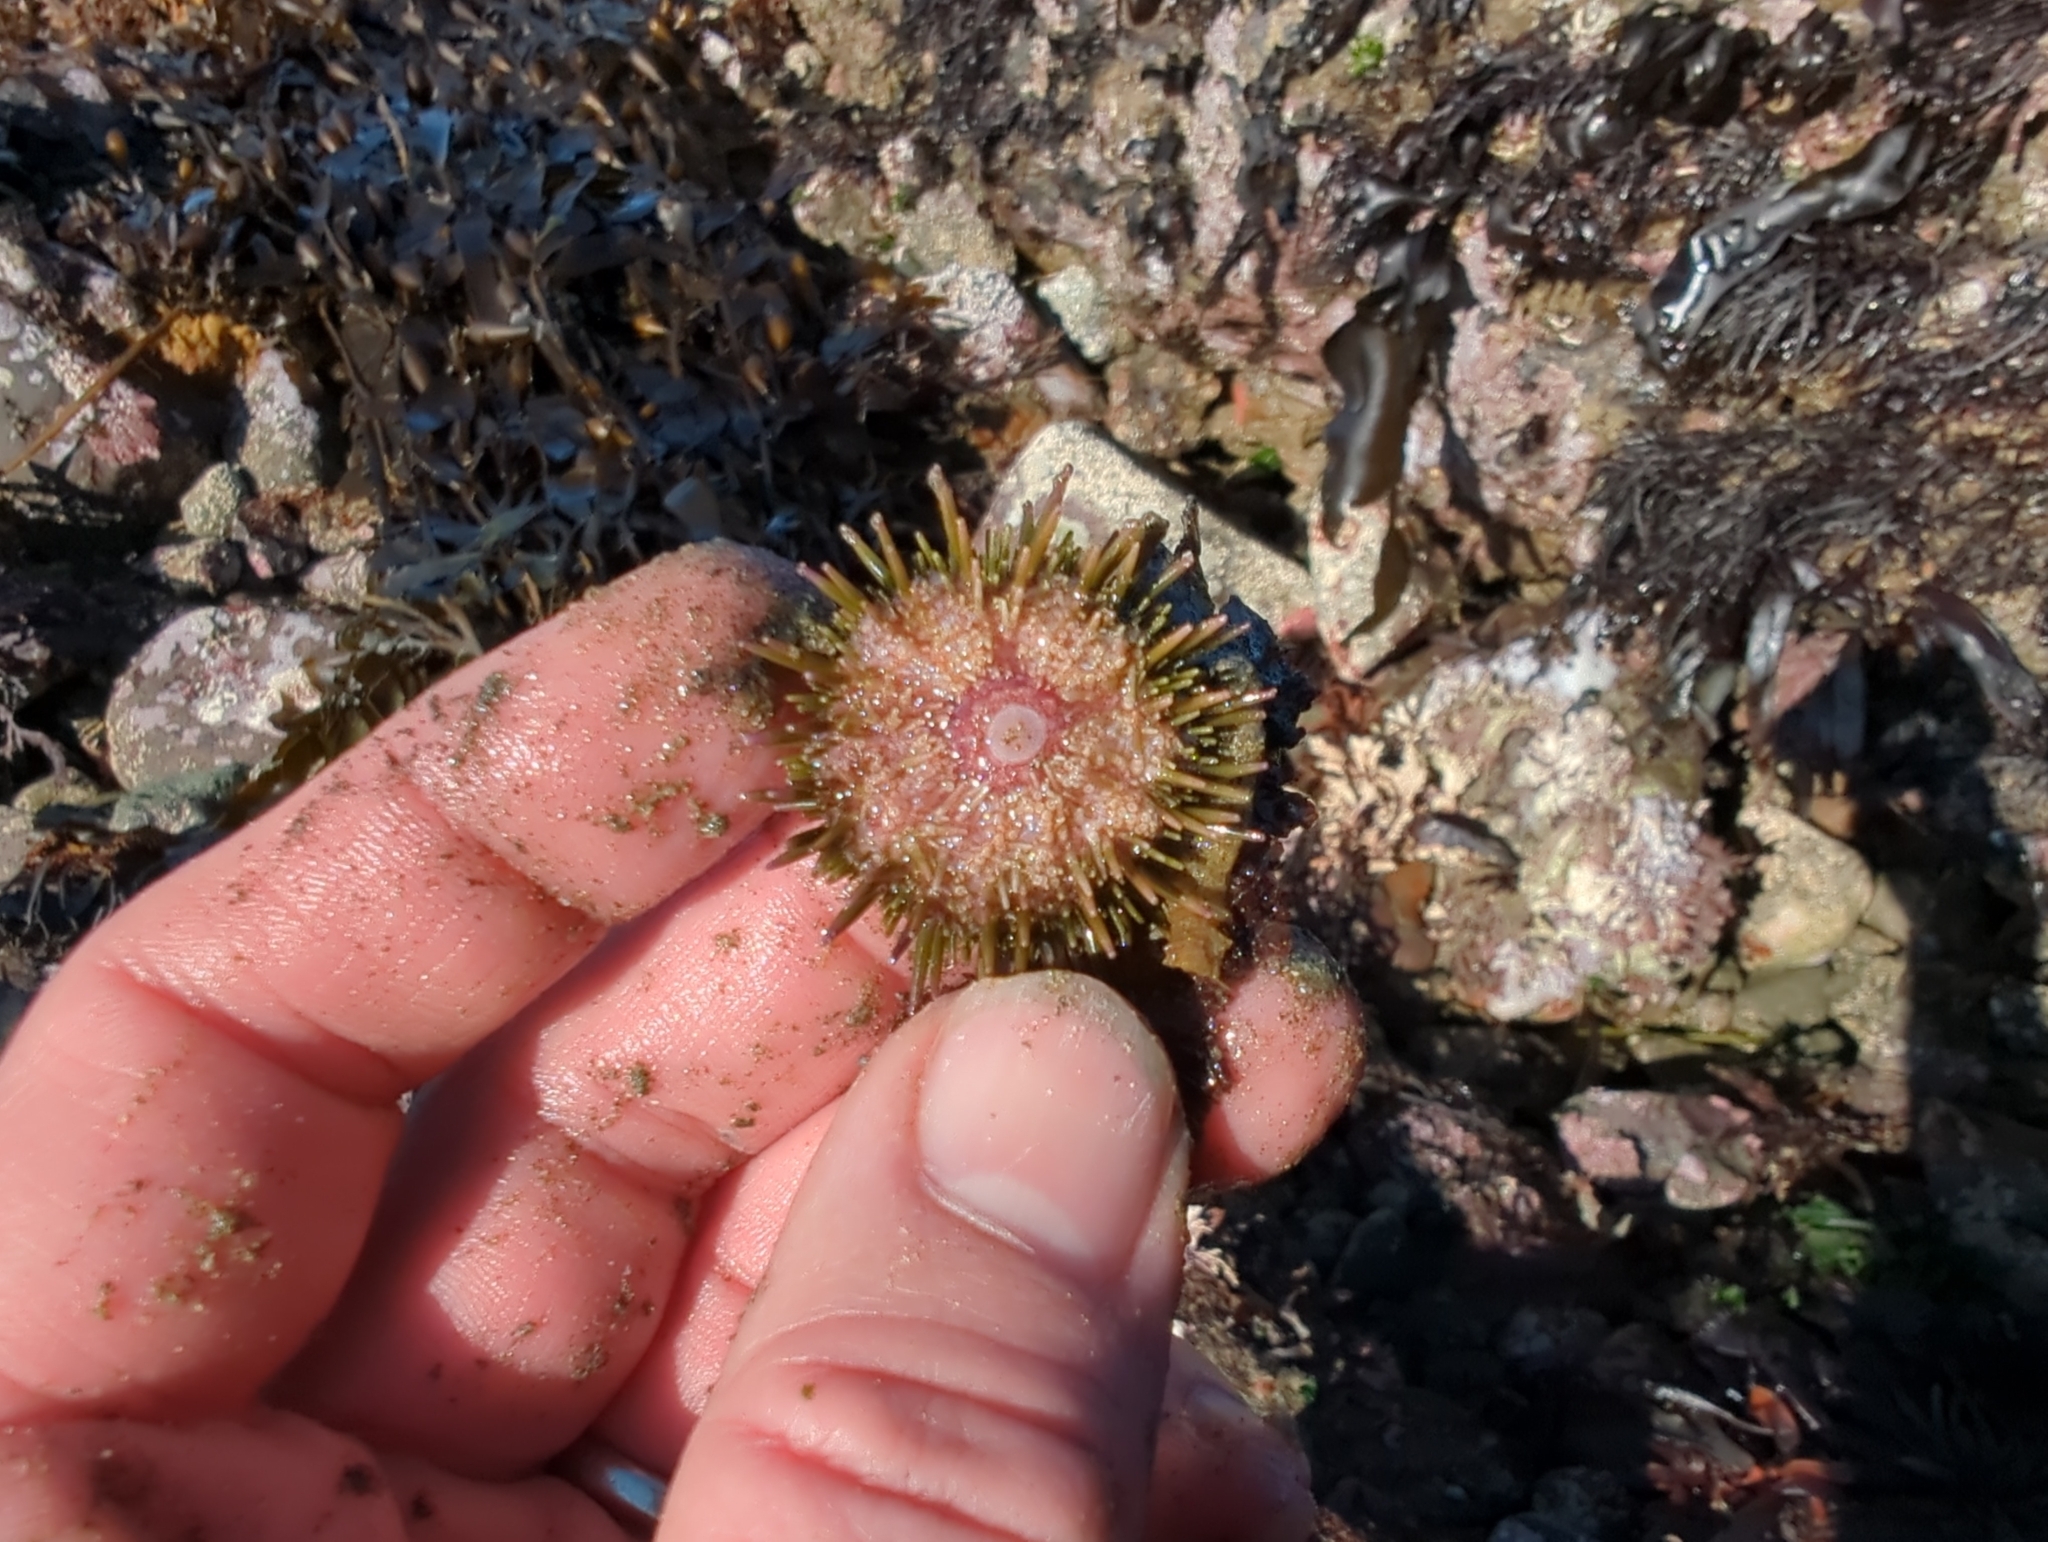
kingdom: Animalia
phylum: Echinodermata
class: Echinoidea
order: Camarodonta
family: Strongylocentrotidae
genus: Strongylocentrotus
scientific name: Strongylocentrotus purpuratus
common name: Purple sea urchin
